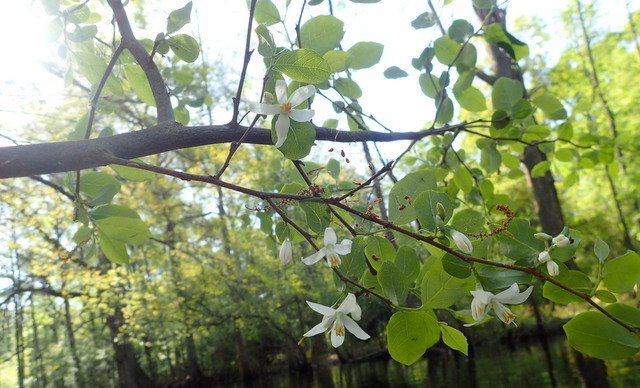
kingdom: Plantae
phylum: Tracheophyta
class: Magnoliopsida
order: Ericales
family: Styracaceae
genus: Styrax
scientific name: Styrax americanus
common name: American snowbell
